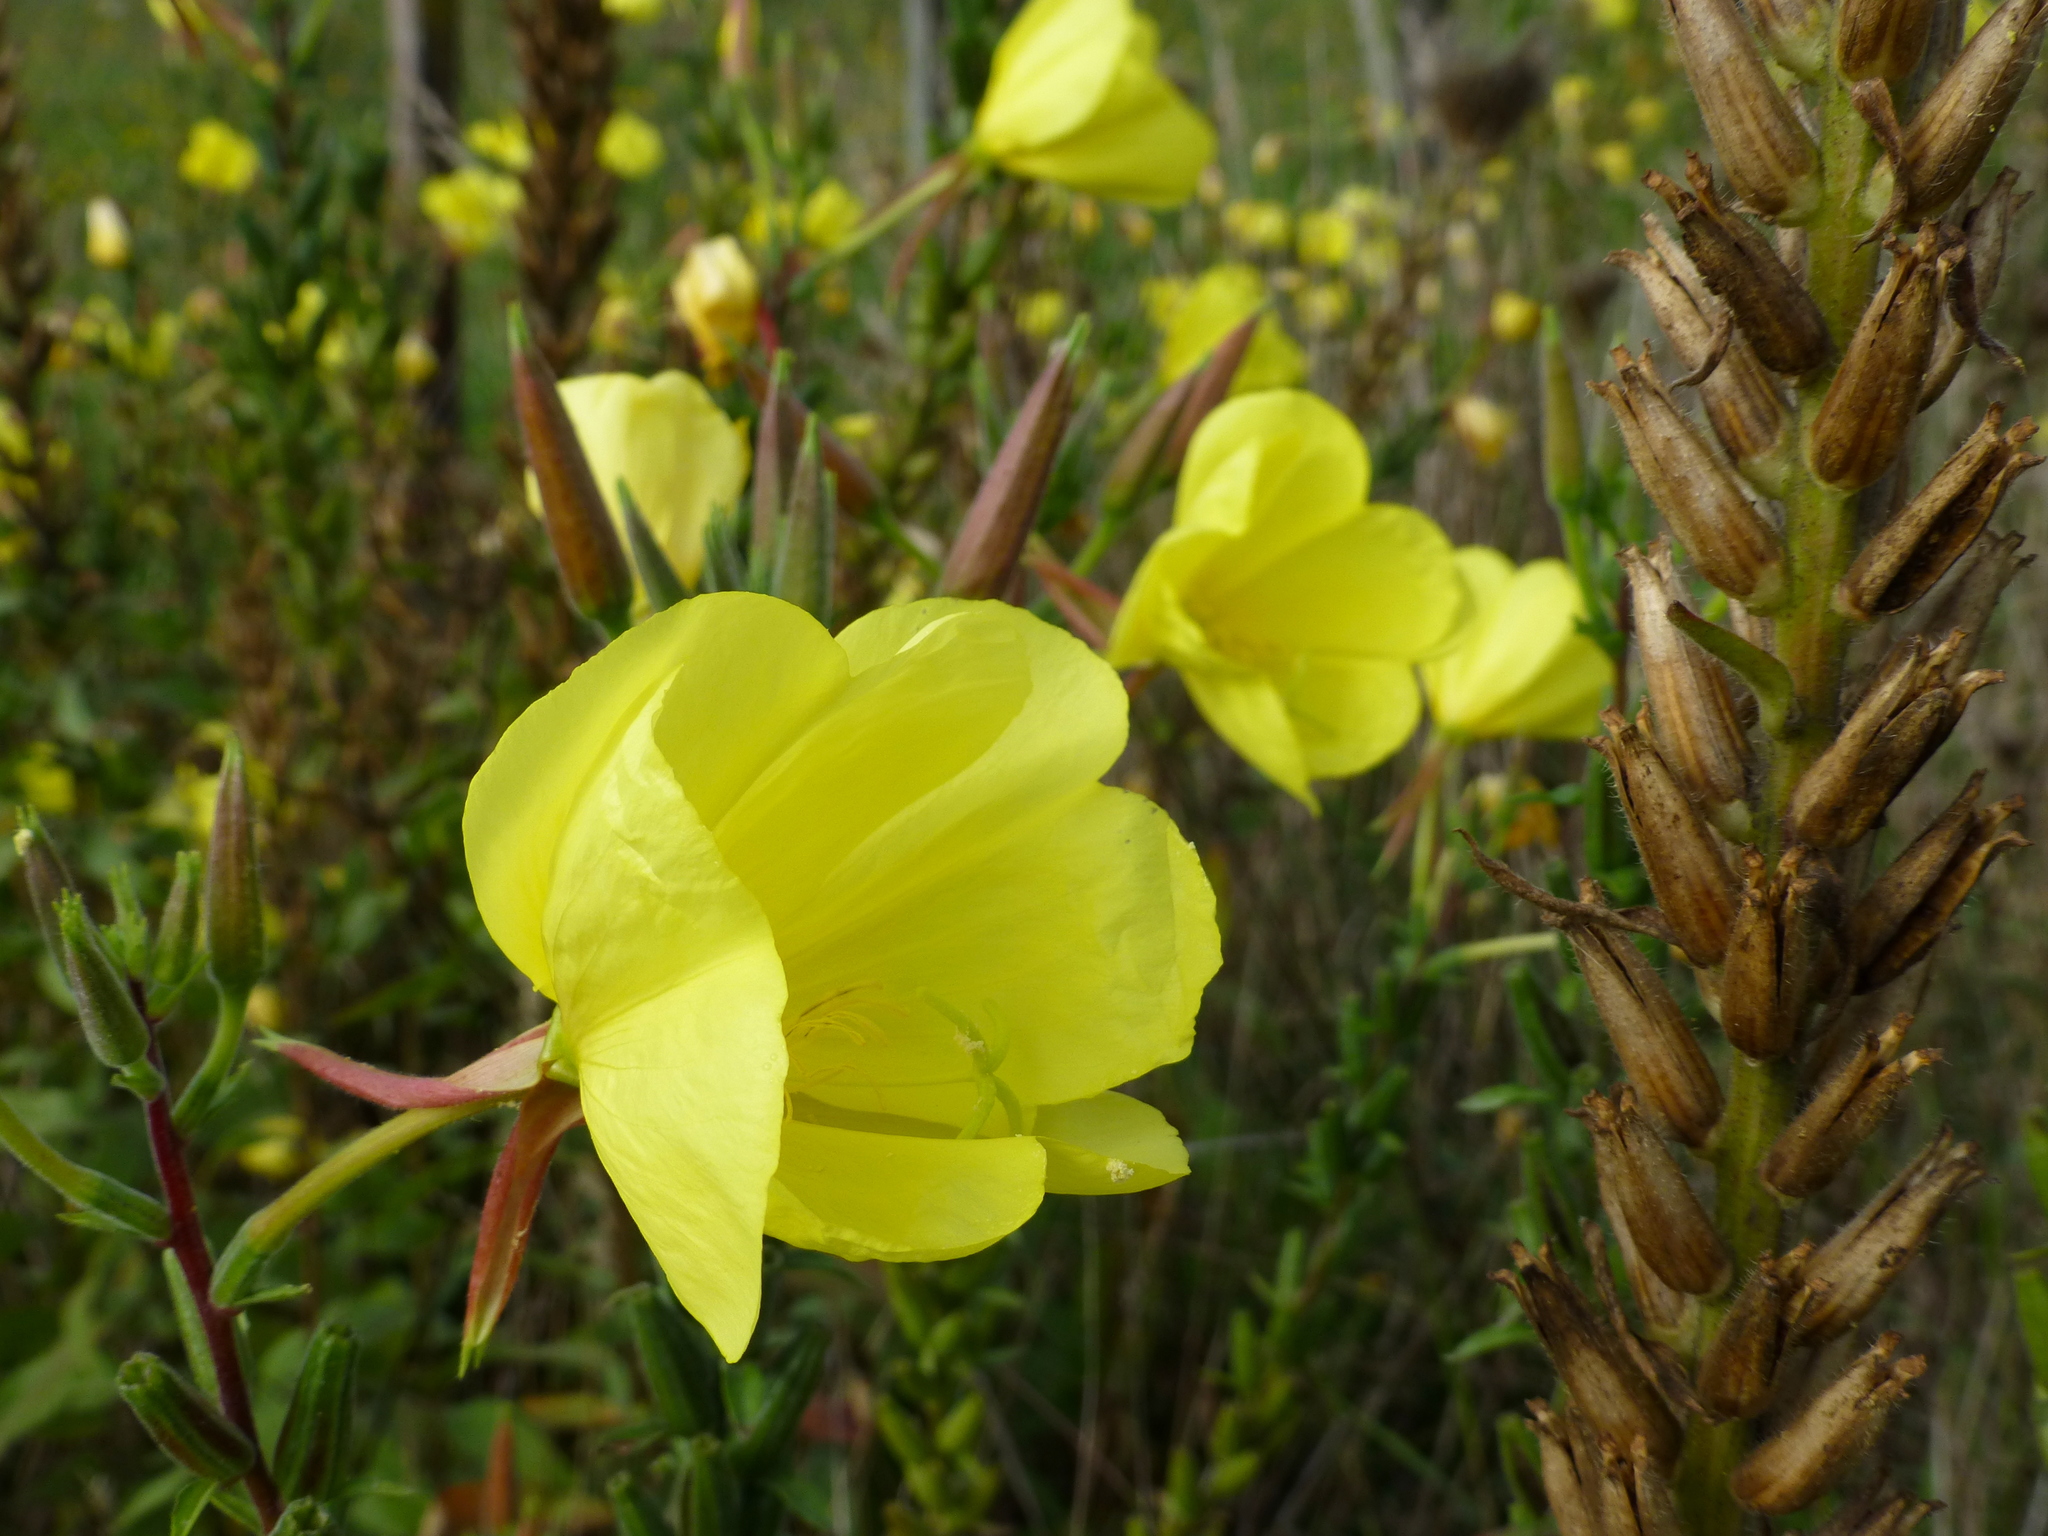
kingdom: Plantae
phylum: Tracheophyta
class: Magnoliopsida
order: Myrtales
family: Onagraceae
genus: Oenothera
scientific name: Oenothera glazioviana
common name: Large-flowered evening-primrose
